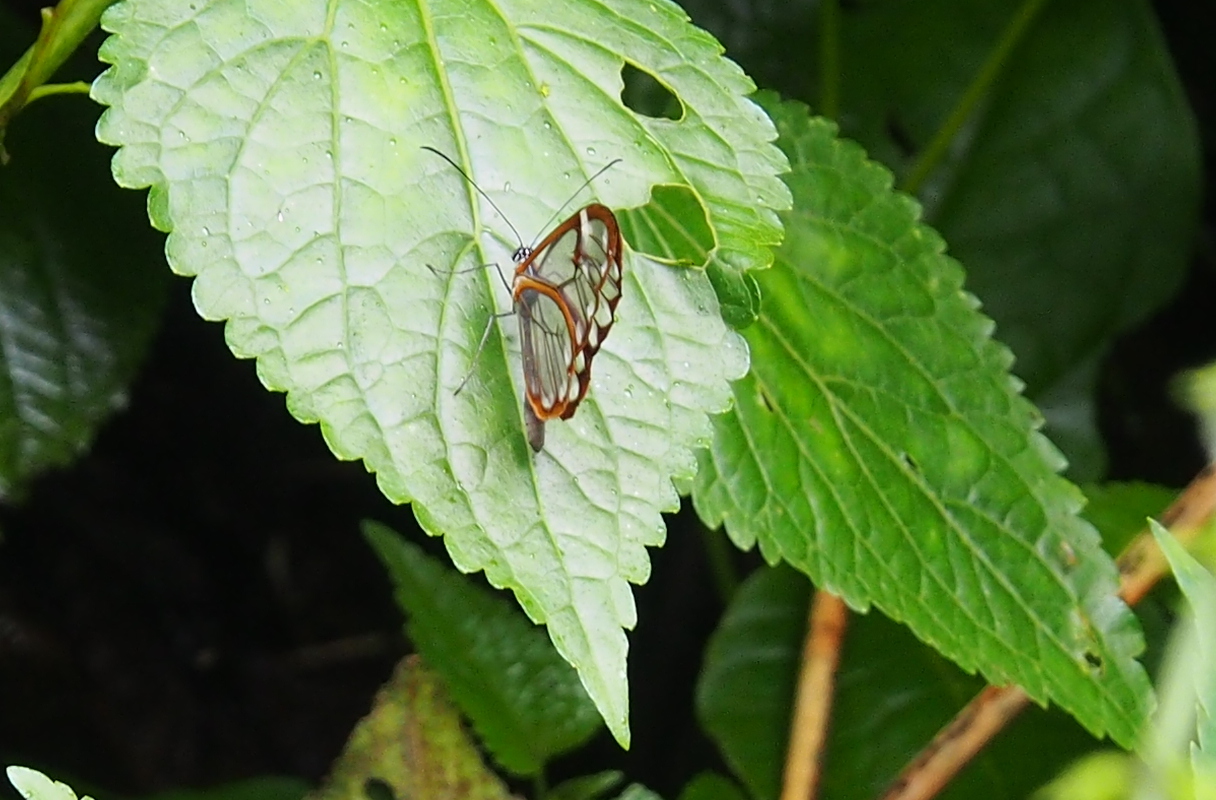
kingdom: Animalia
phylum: Arthropoda
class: Insecta
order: Lepidoptera
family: Nymphalidae
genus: Greta
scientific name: Greta annette
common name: White-spotted clearwing
